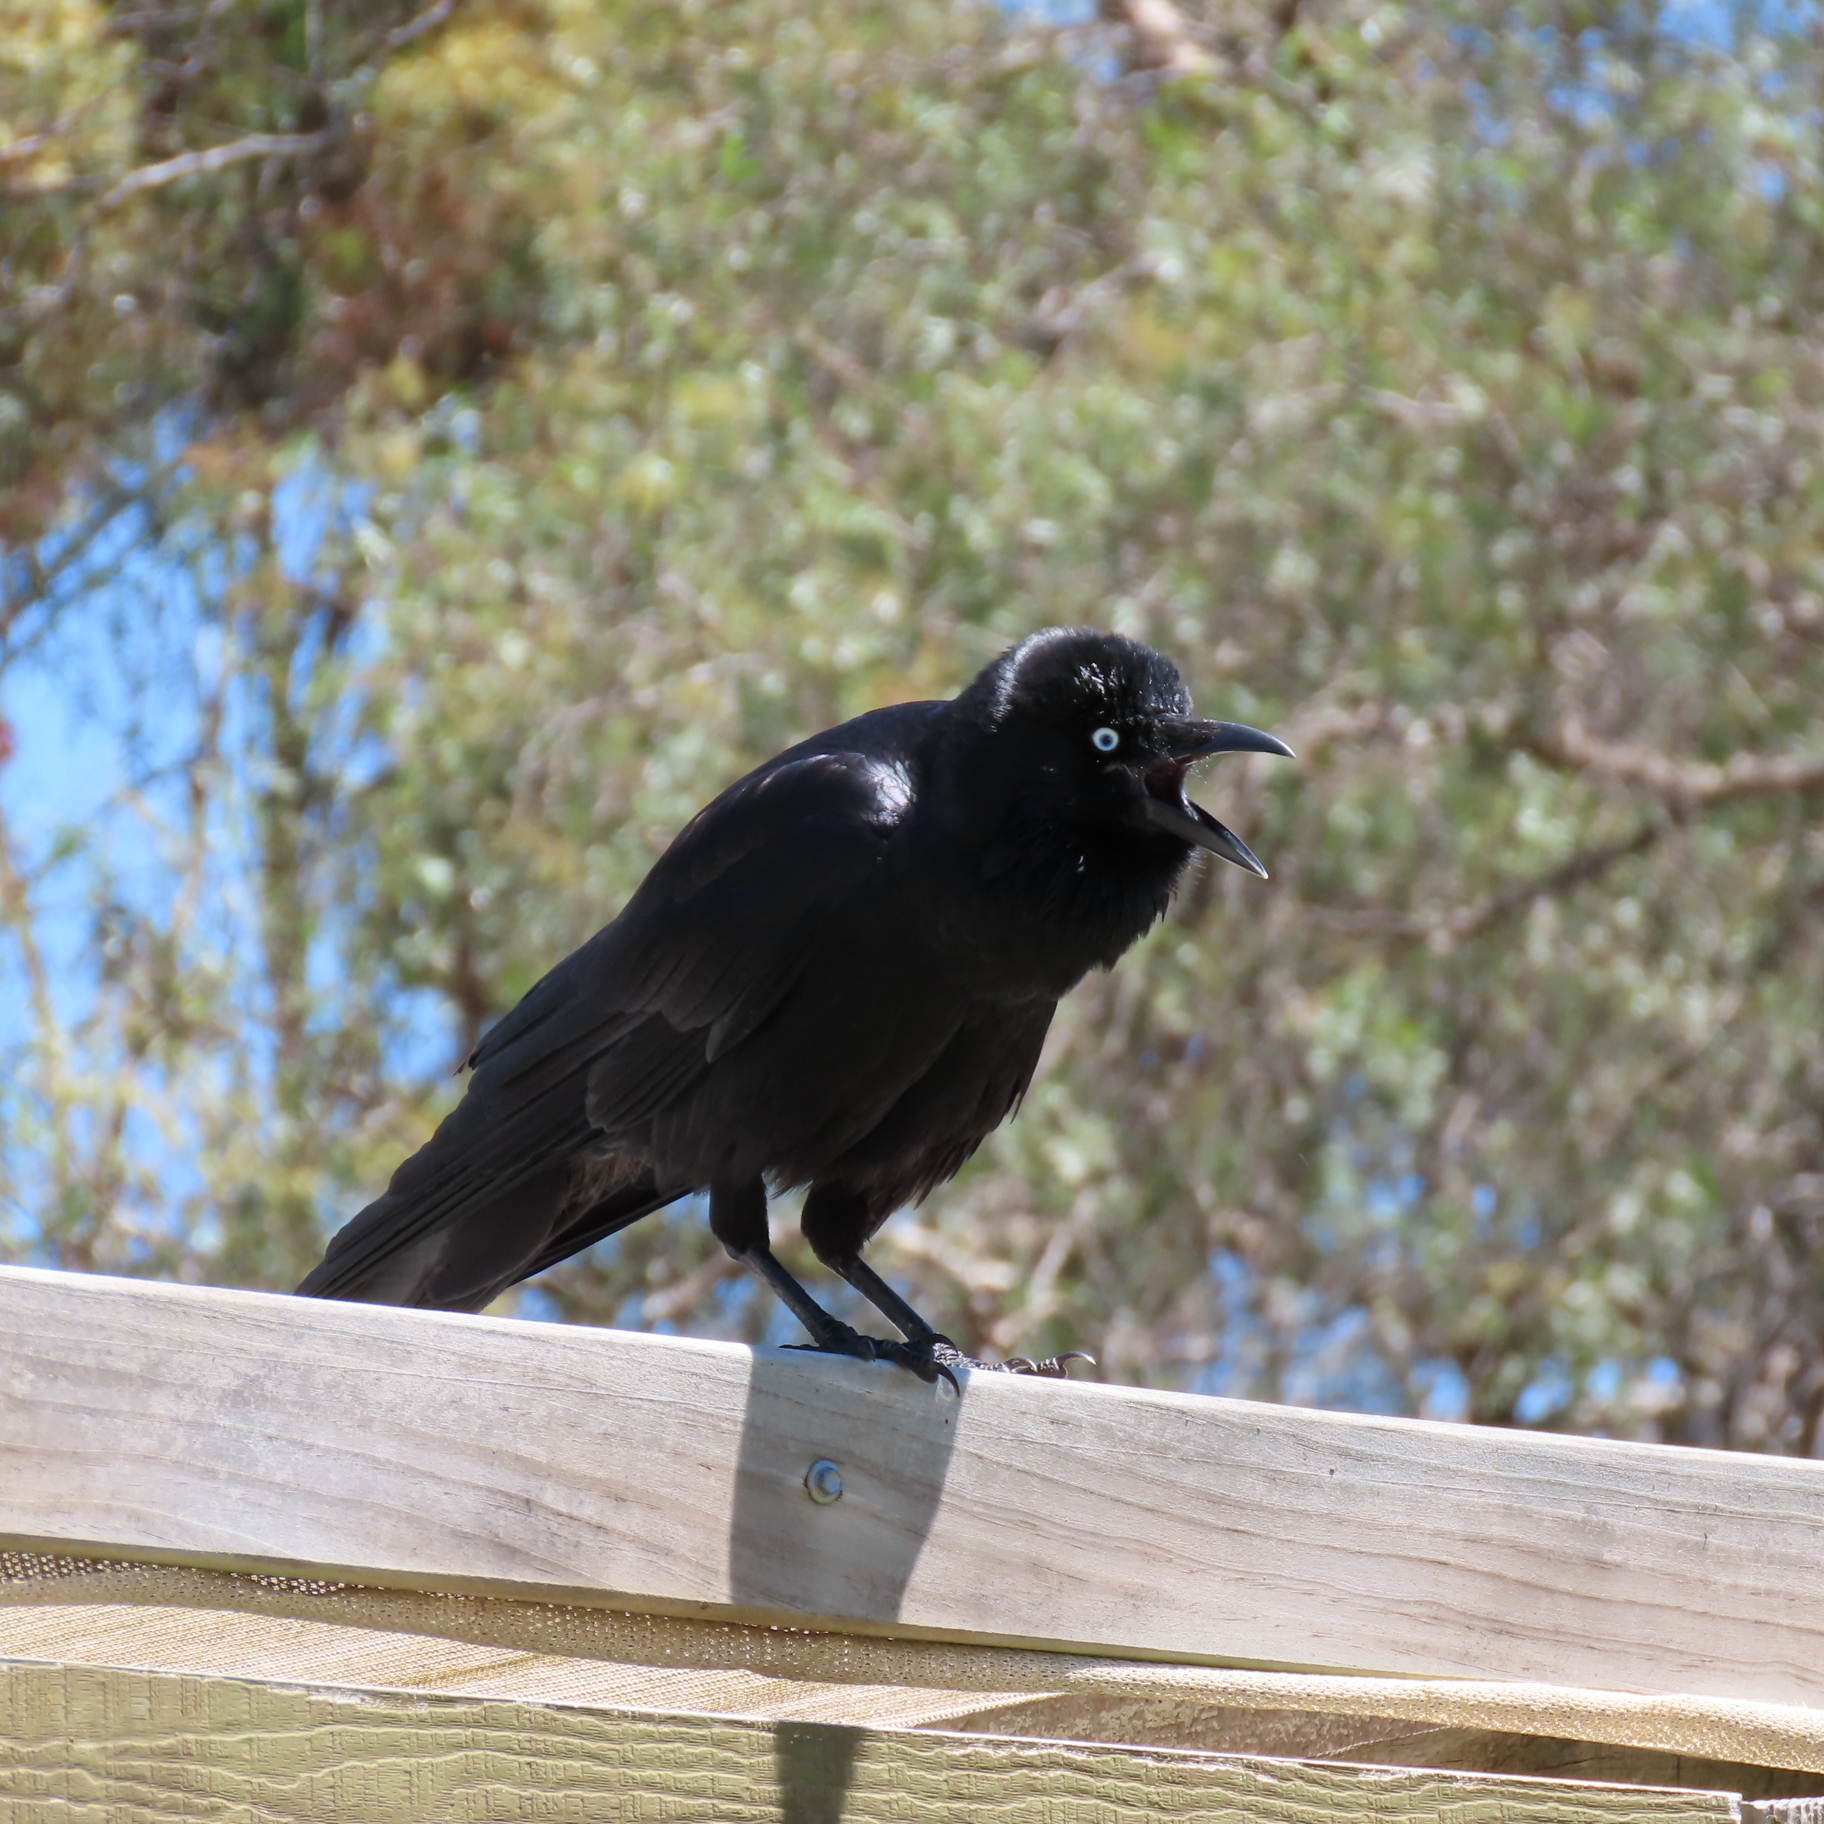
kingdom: Animalia
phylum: Chordata
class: Aves
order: Passeriformes
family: Corvidae
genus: Corvus
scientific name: Corvus mellori
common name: Little raven
